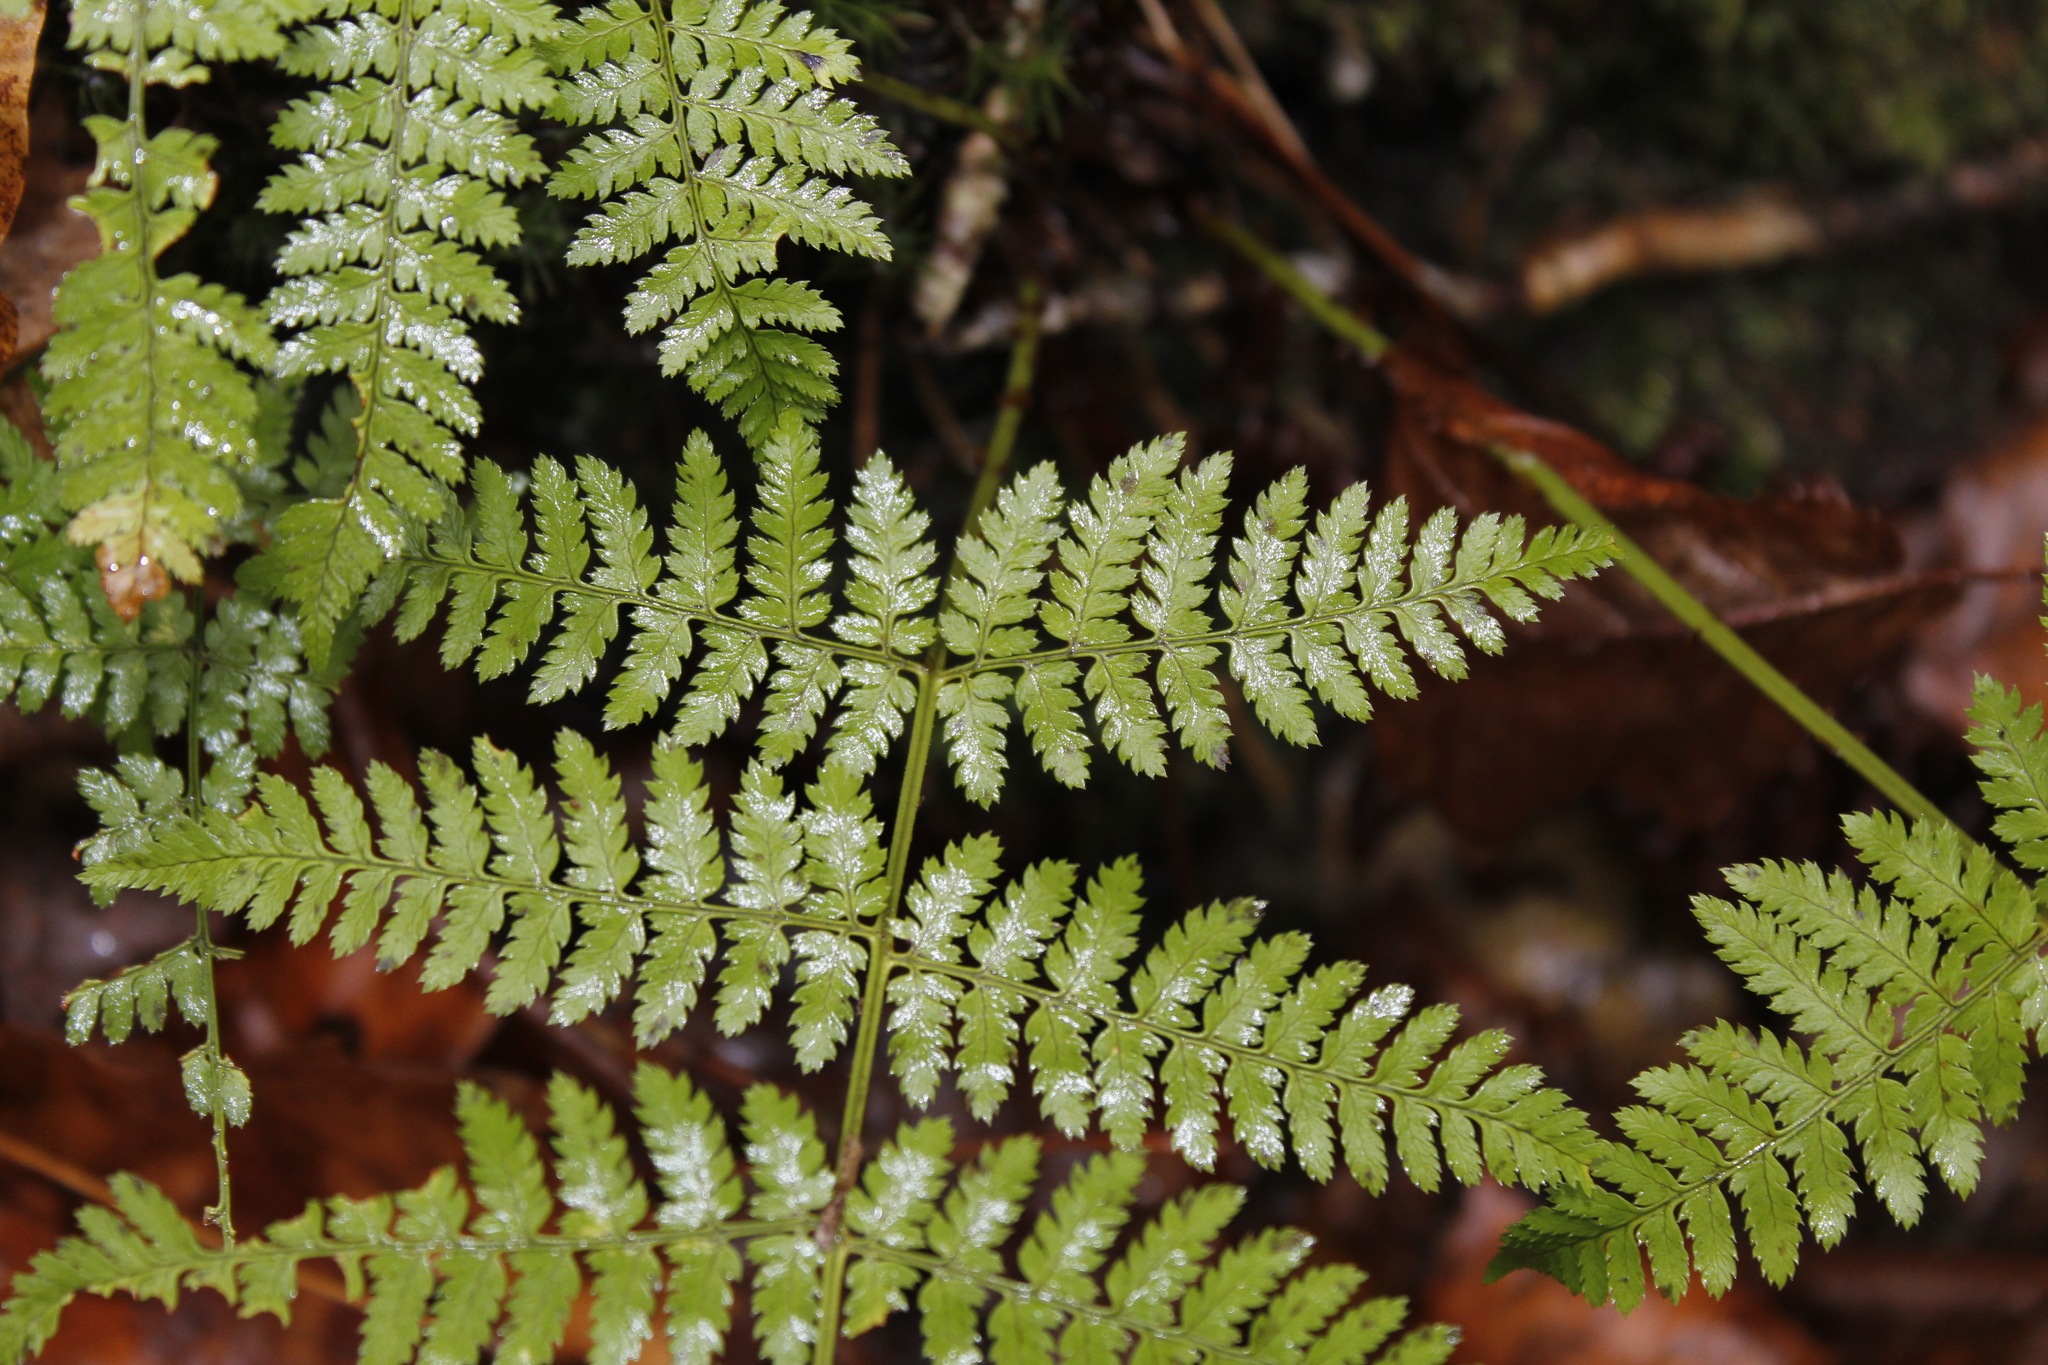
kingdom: Plantae
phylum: Tracheophyta
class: Polypodiopsida
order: Polypodiales
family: Dryopteridaceae
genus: Dryopteris
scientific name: Dryopteris intermedia
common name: Evergreen wood fern
